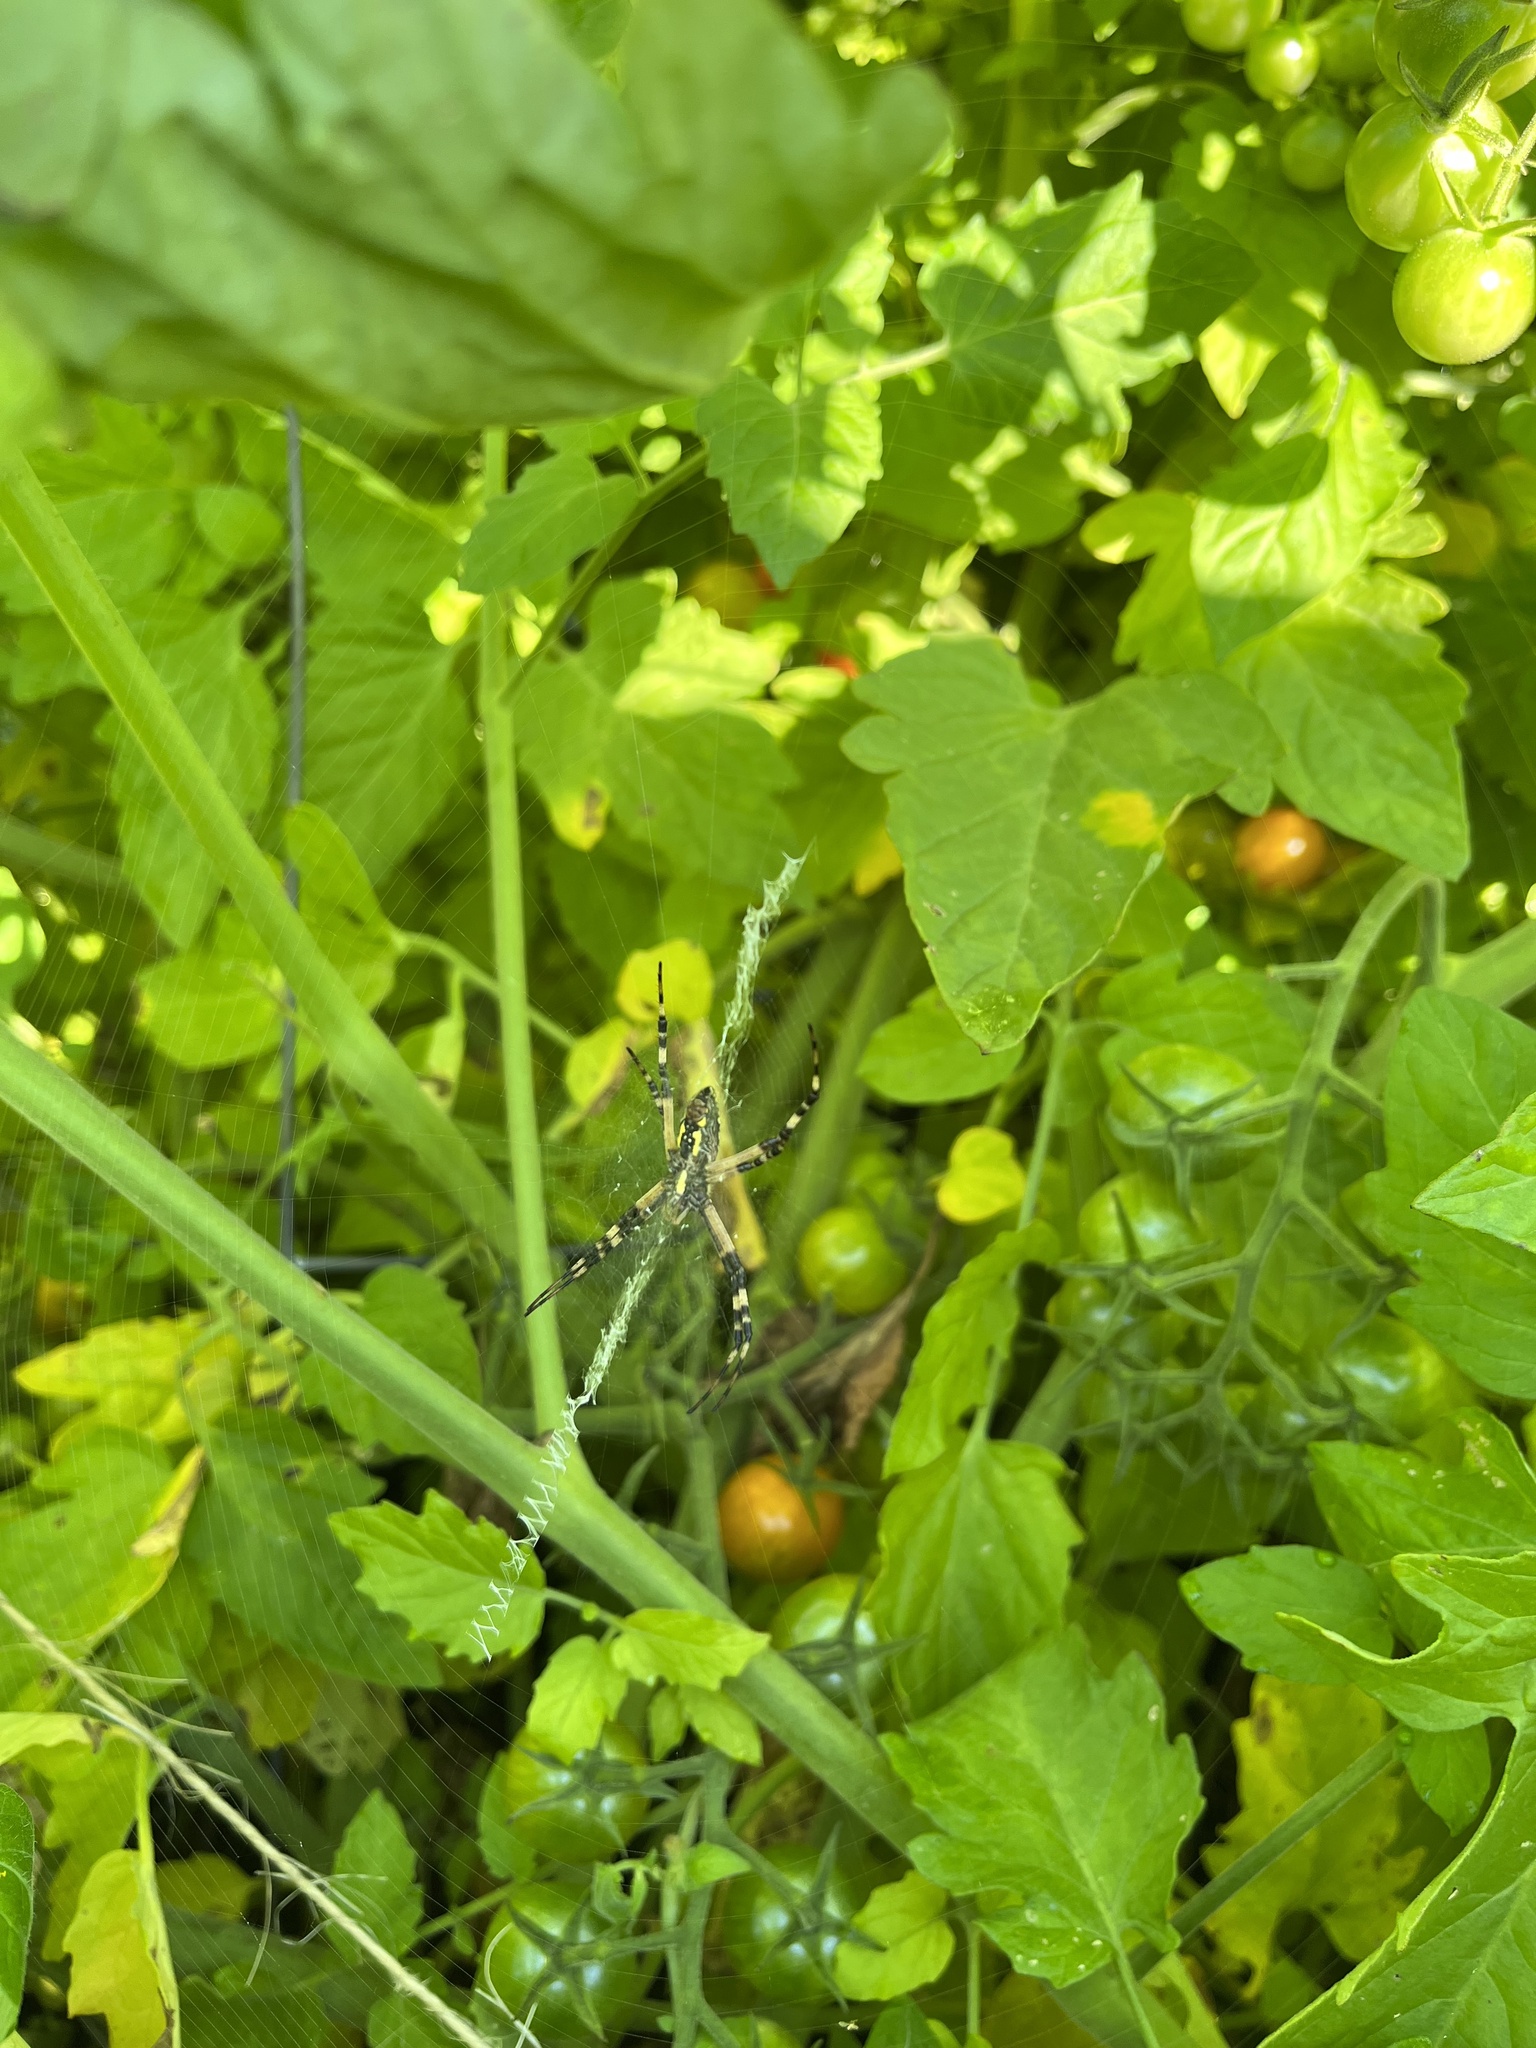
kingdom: Animalia
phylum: Arthropoda
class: Arachnida
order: Araneae
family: Araneidae
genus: Argiope
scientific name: Argiope aurantia
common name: Orb weavers
